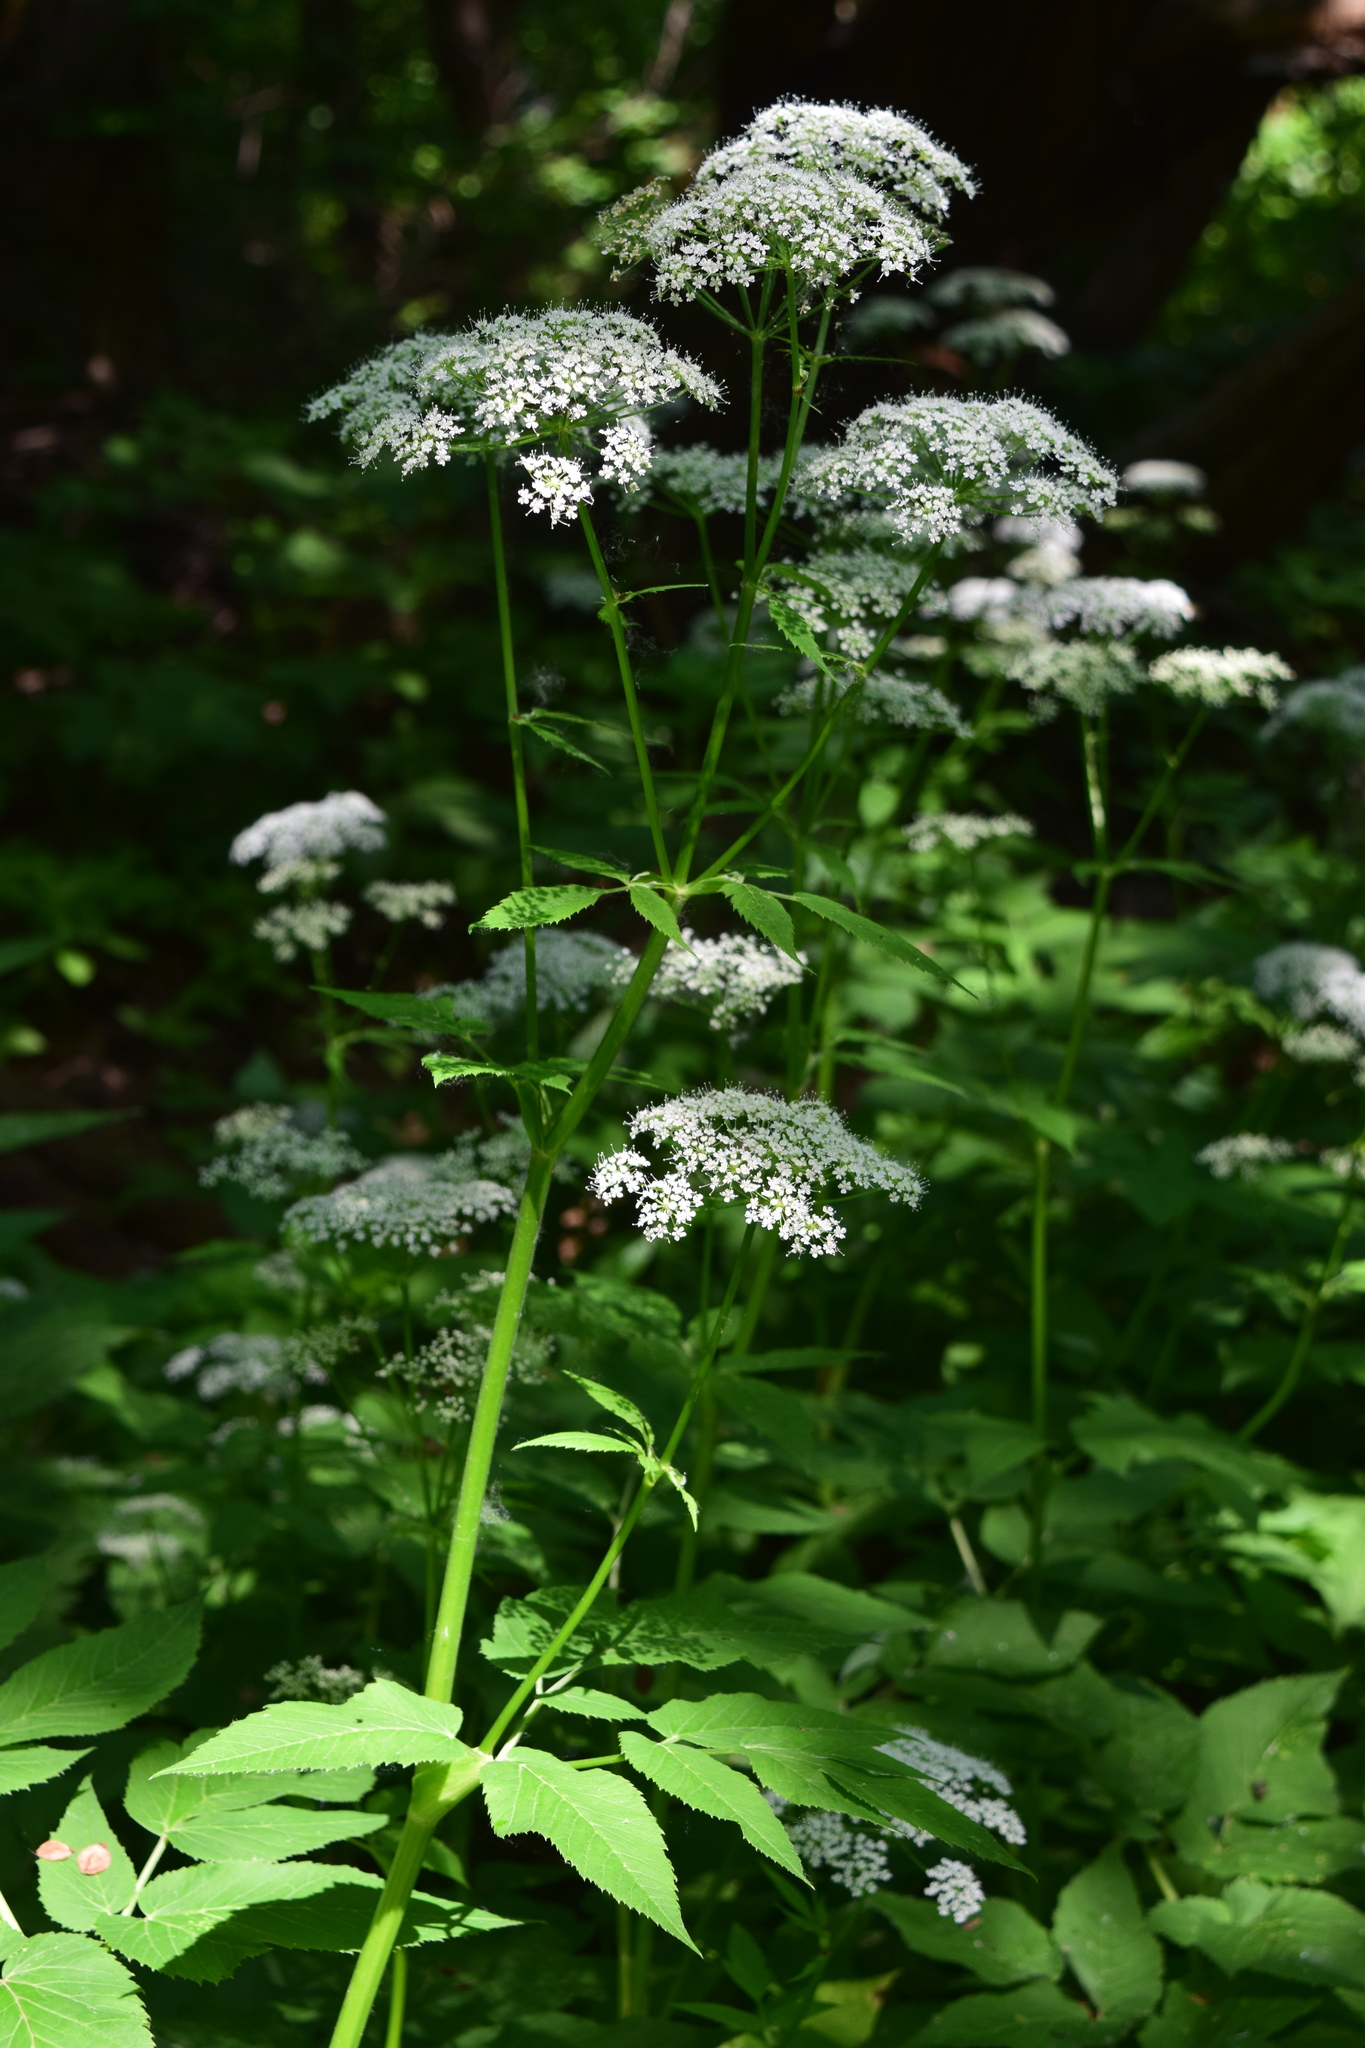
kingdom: Plantae
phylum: Tracheophyta
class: Magnoliopsida
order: Apiales
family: Apiaceae
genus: Aegopodium
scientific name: Aegopodium podagraria
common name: Ground-elder
